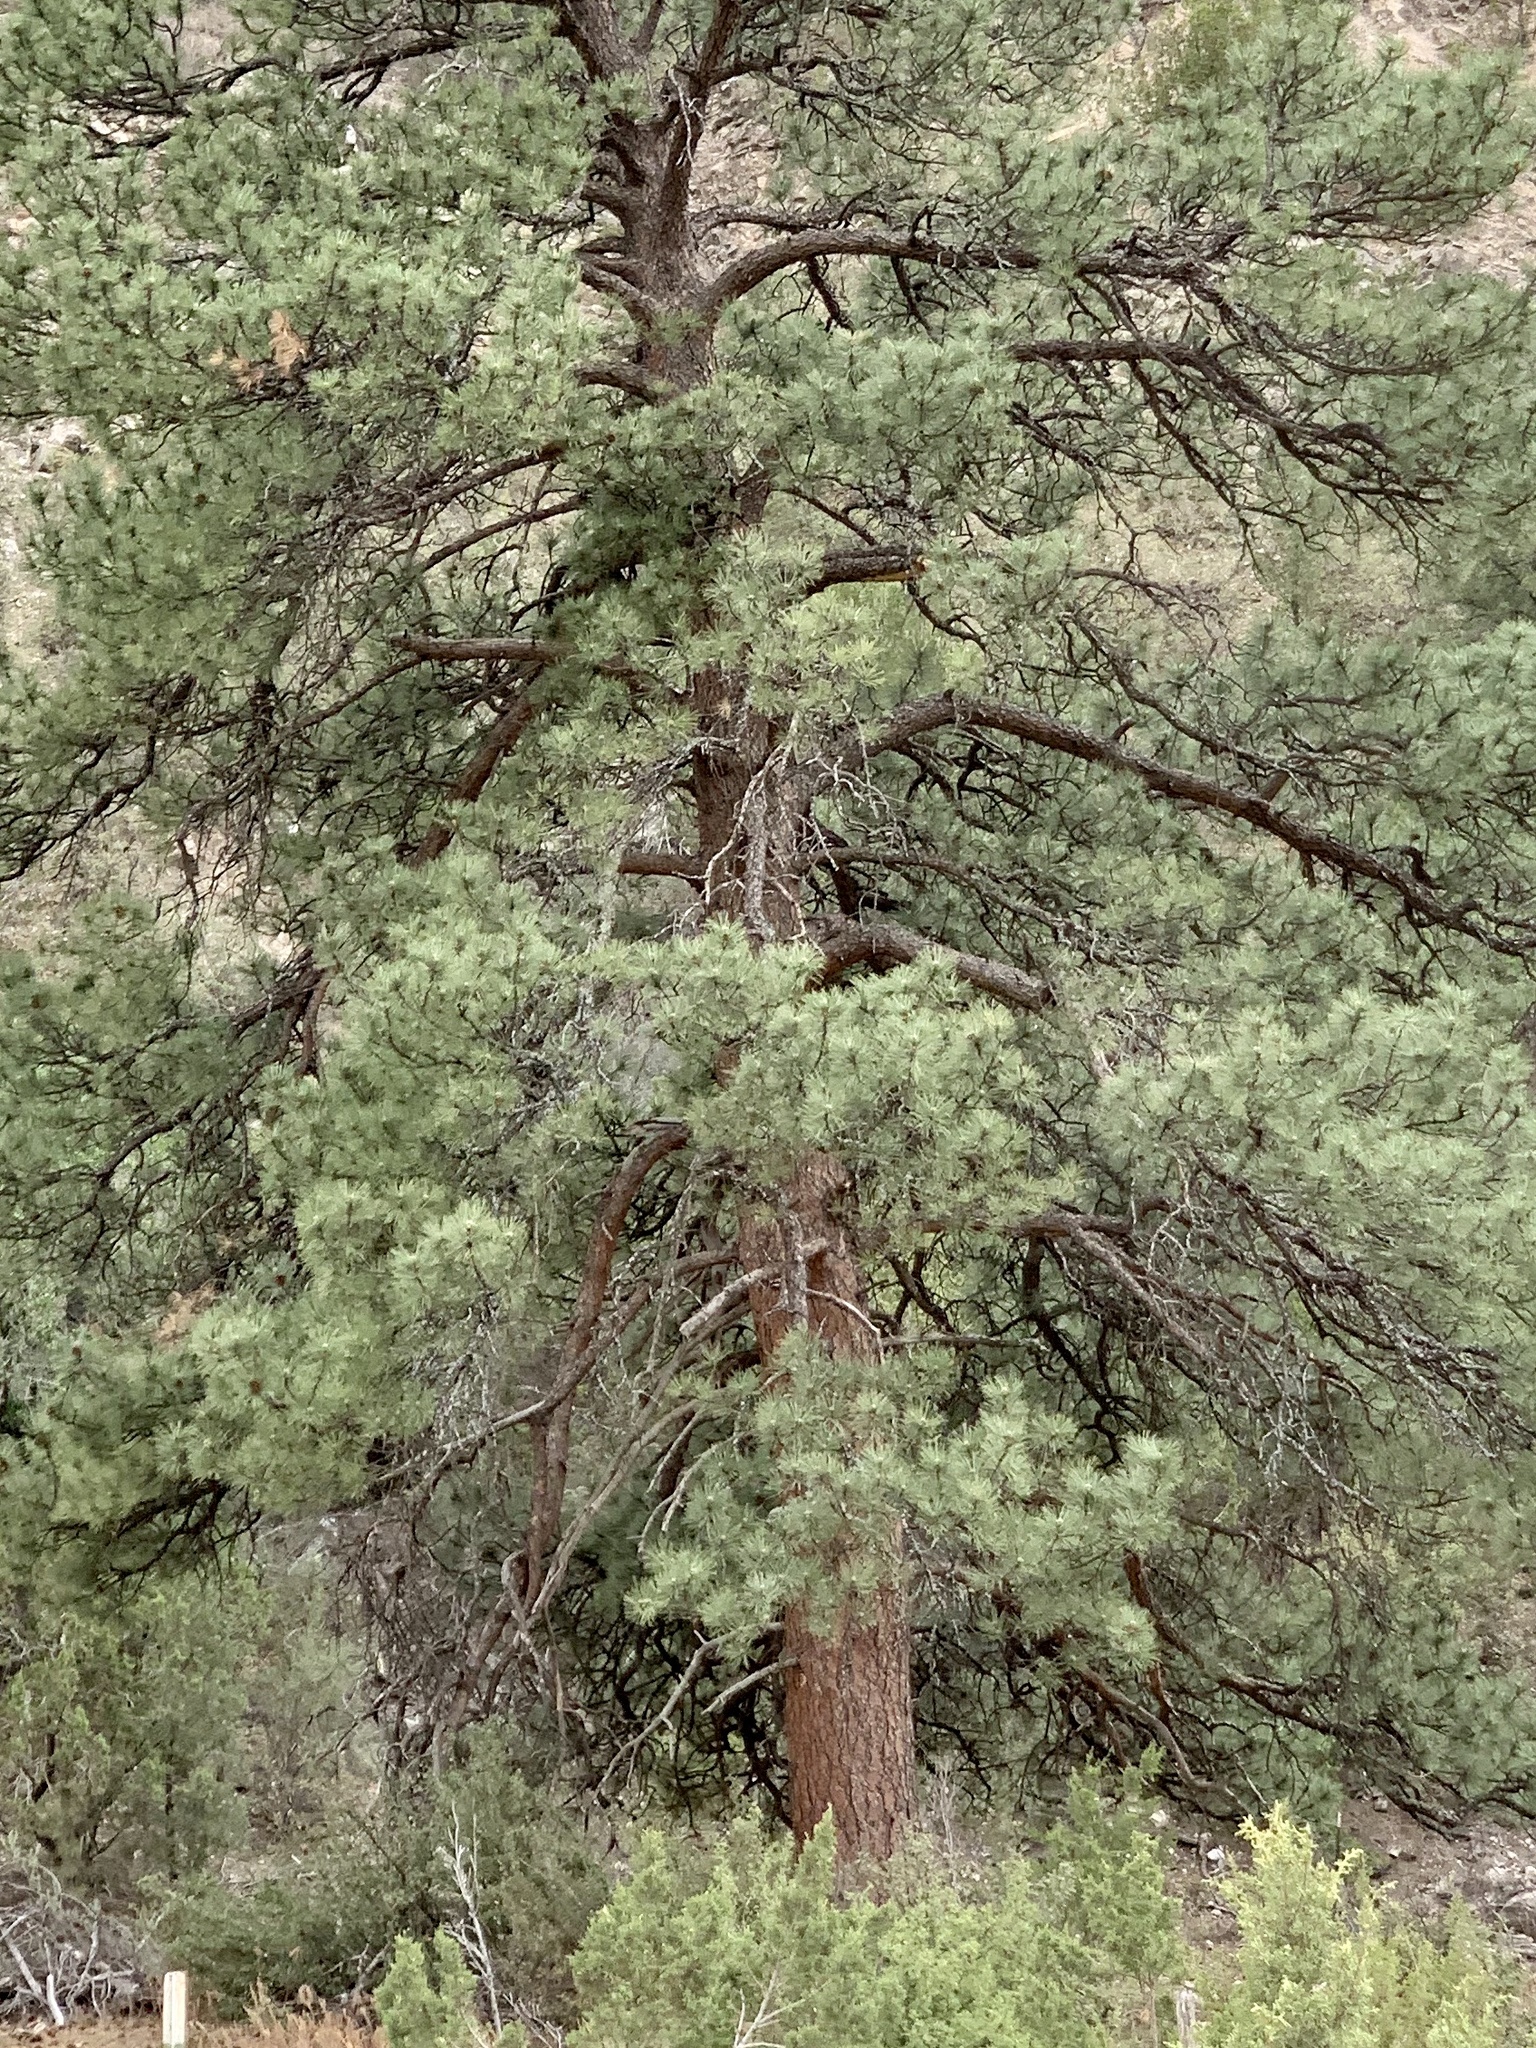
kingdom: Plantae
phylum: Tracheophyta
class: Pinopsida
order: Pinales
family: Pinaceae
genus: Pinus
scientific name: Pinus ponderosa
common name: Western yellow-pine
